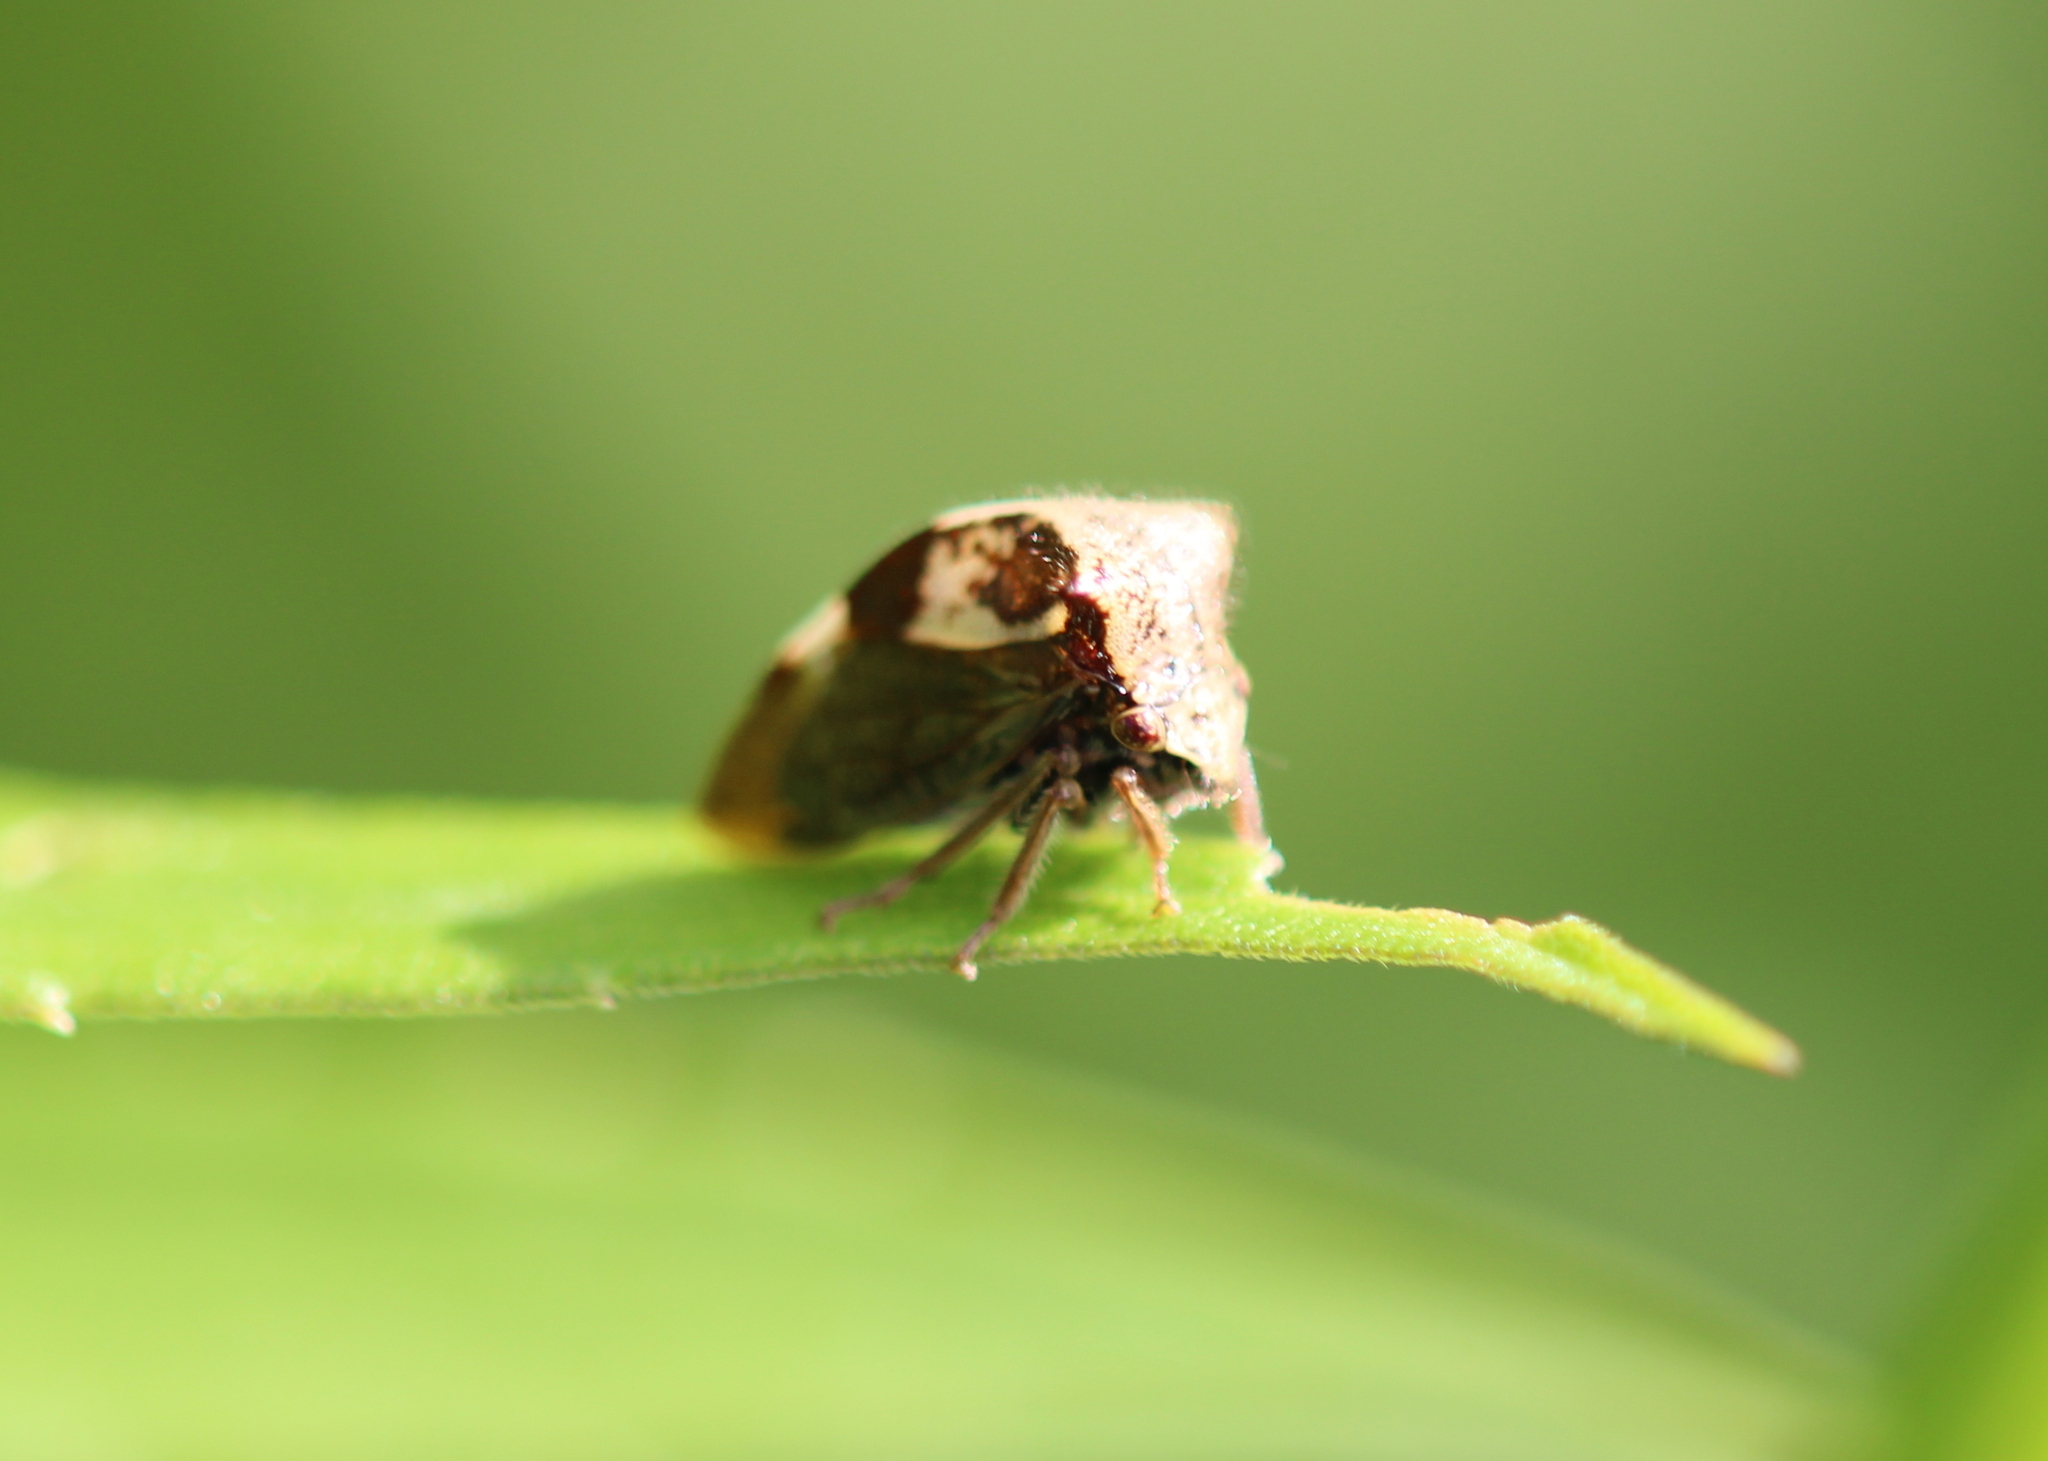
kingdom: Animalia
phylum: Arthropoda
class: Insecta
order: Hemiptera
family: Membracidae
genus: Stictocephala
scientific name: Stictocephala diceros
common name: Two-horned treehopper
